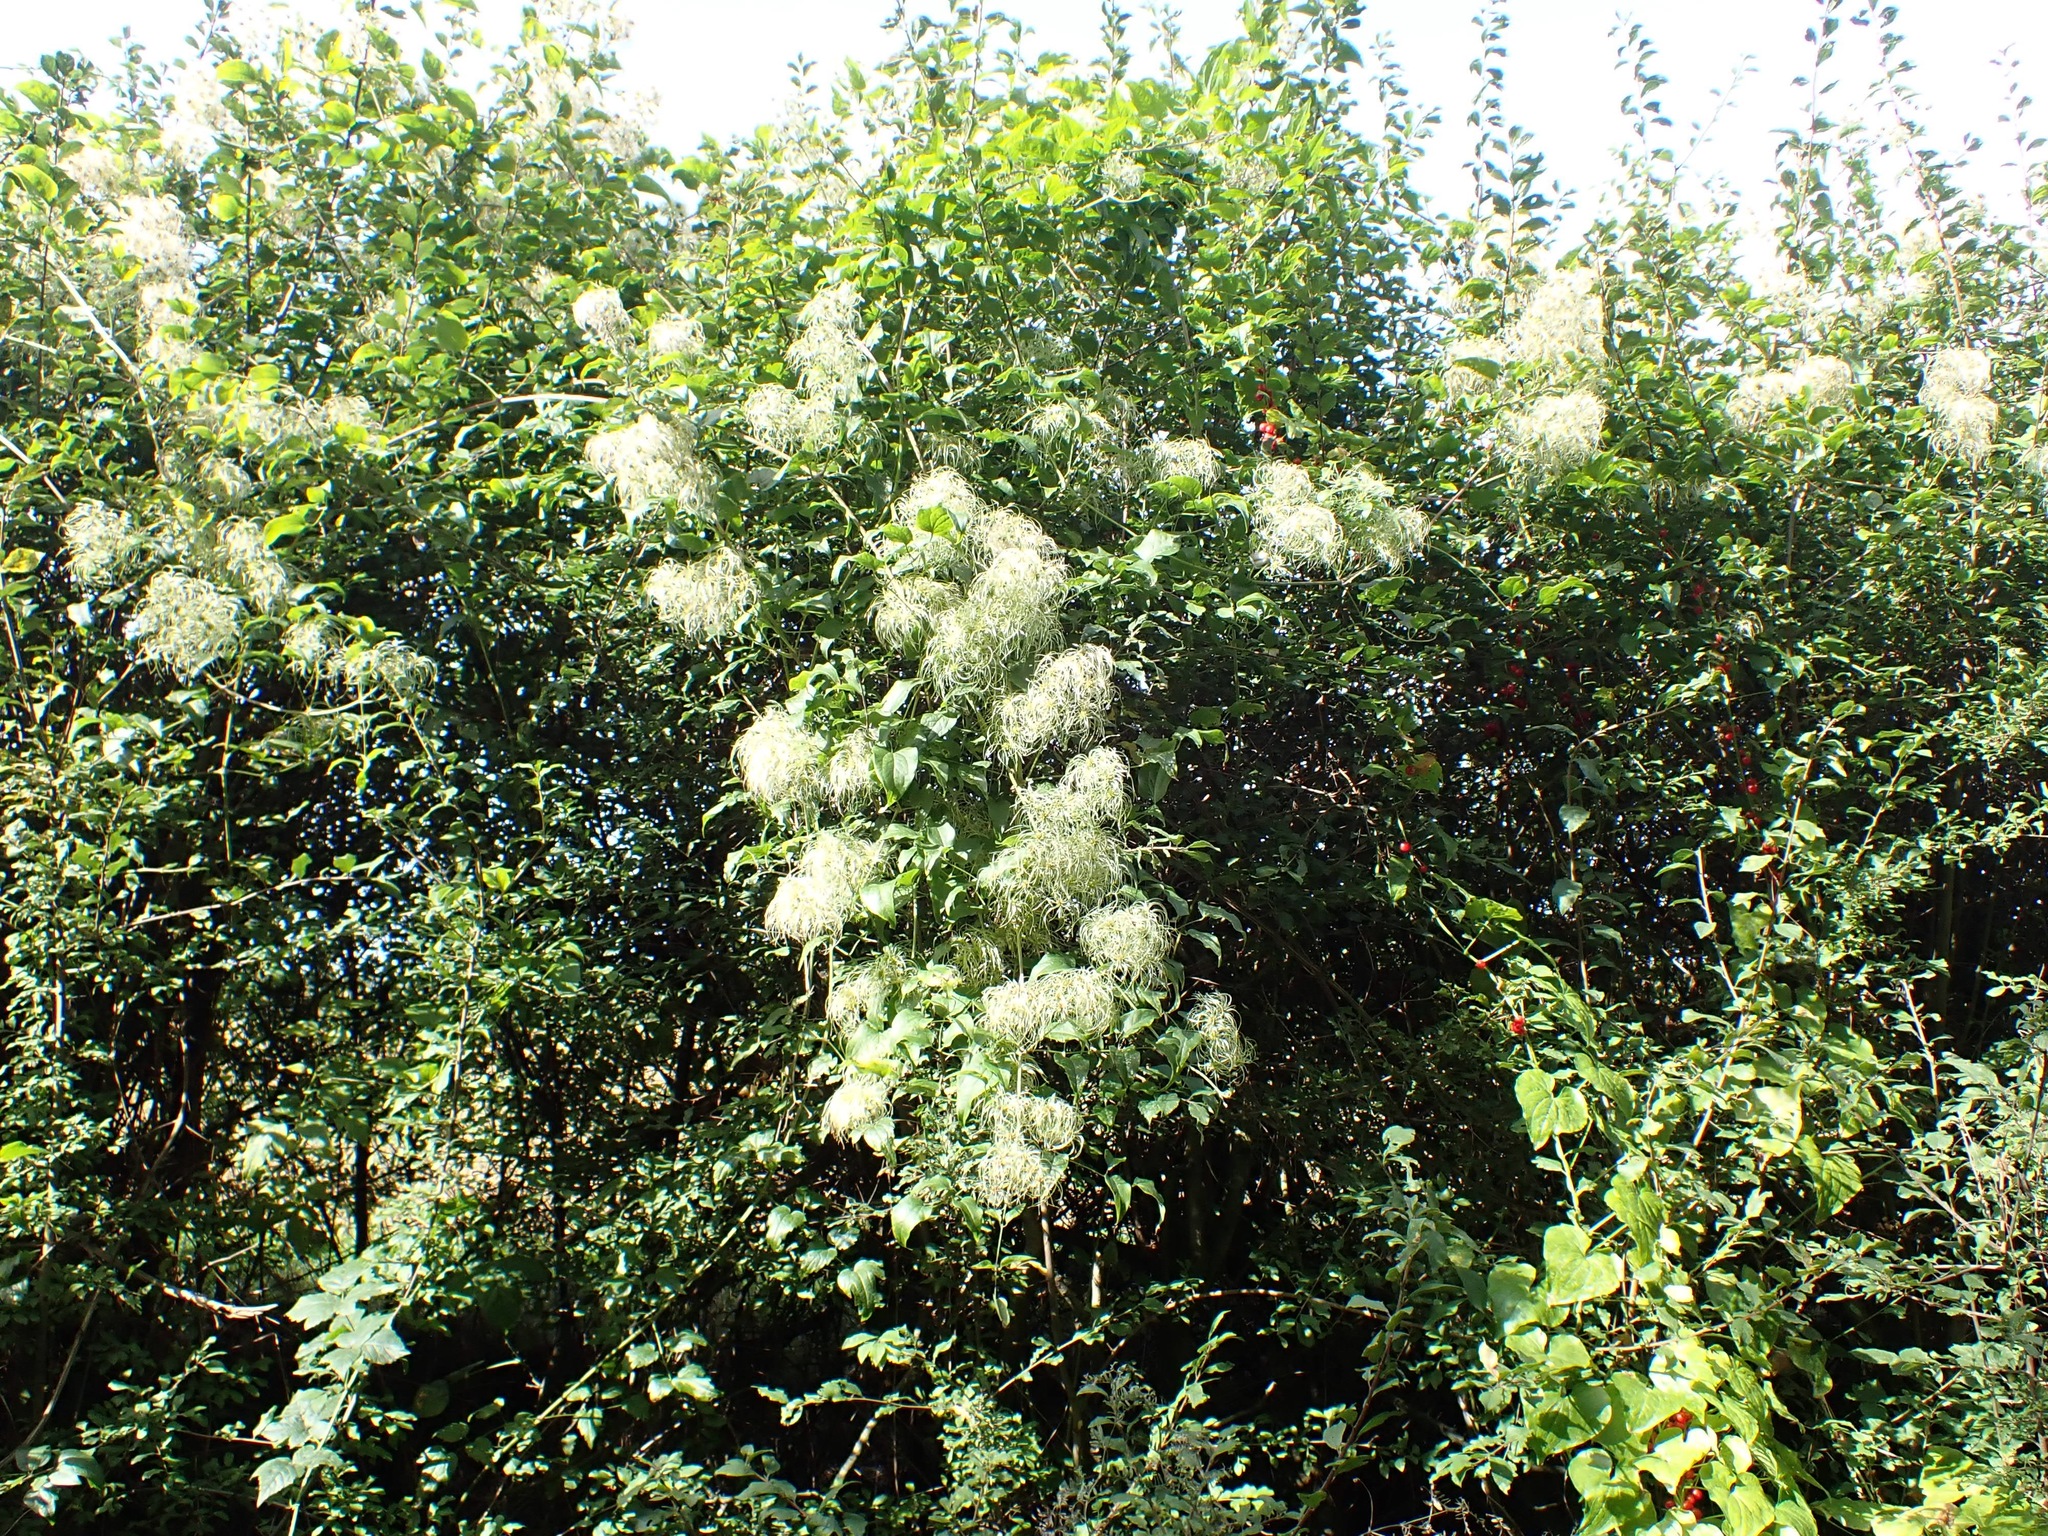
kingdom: Plantae
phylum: Tracheophyta
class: Magnoliopsida
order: Ranunculales
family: Ranunculaceae
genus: Clematis
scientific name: Clematis vitalba
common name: Evergreen clematis
